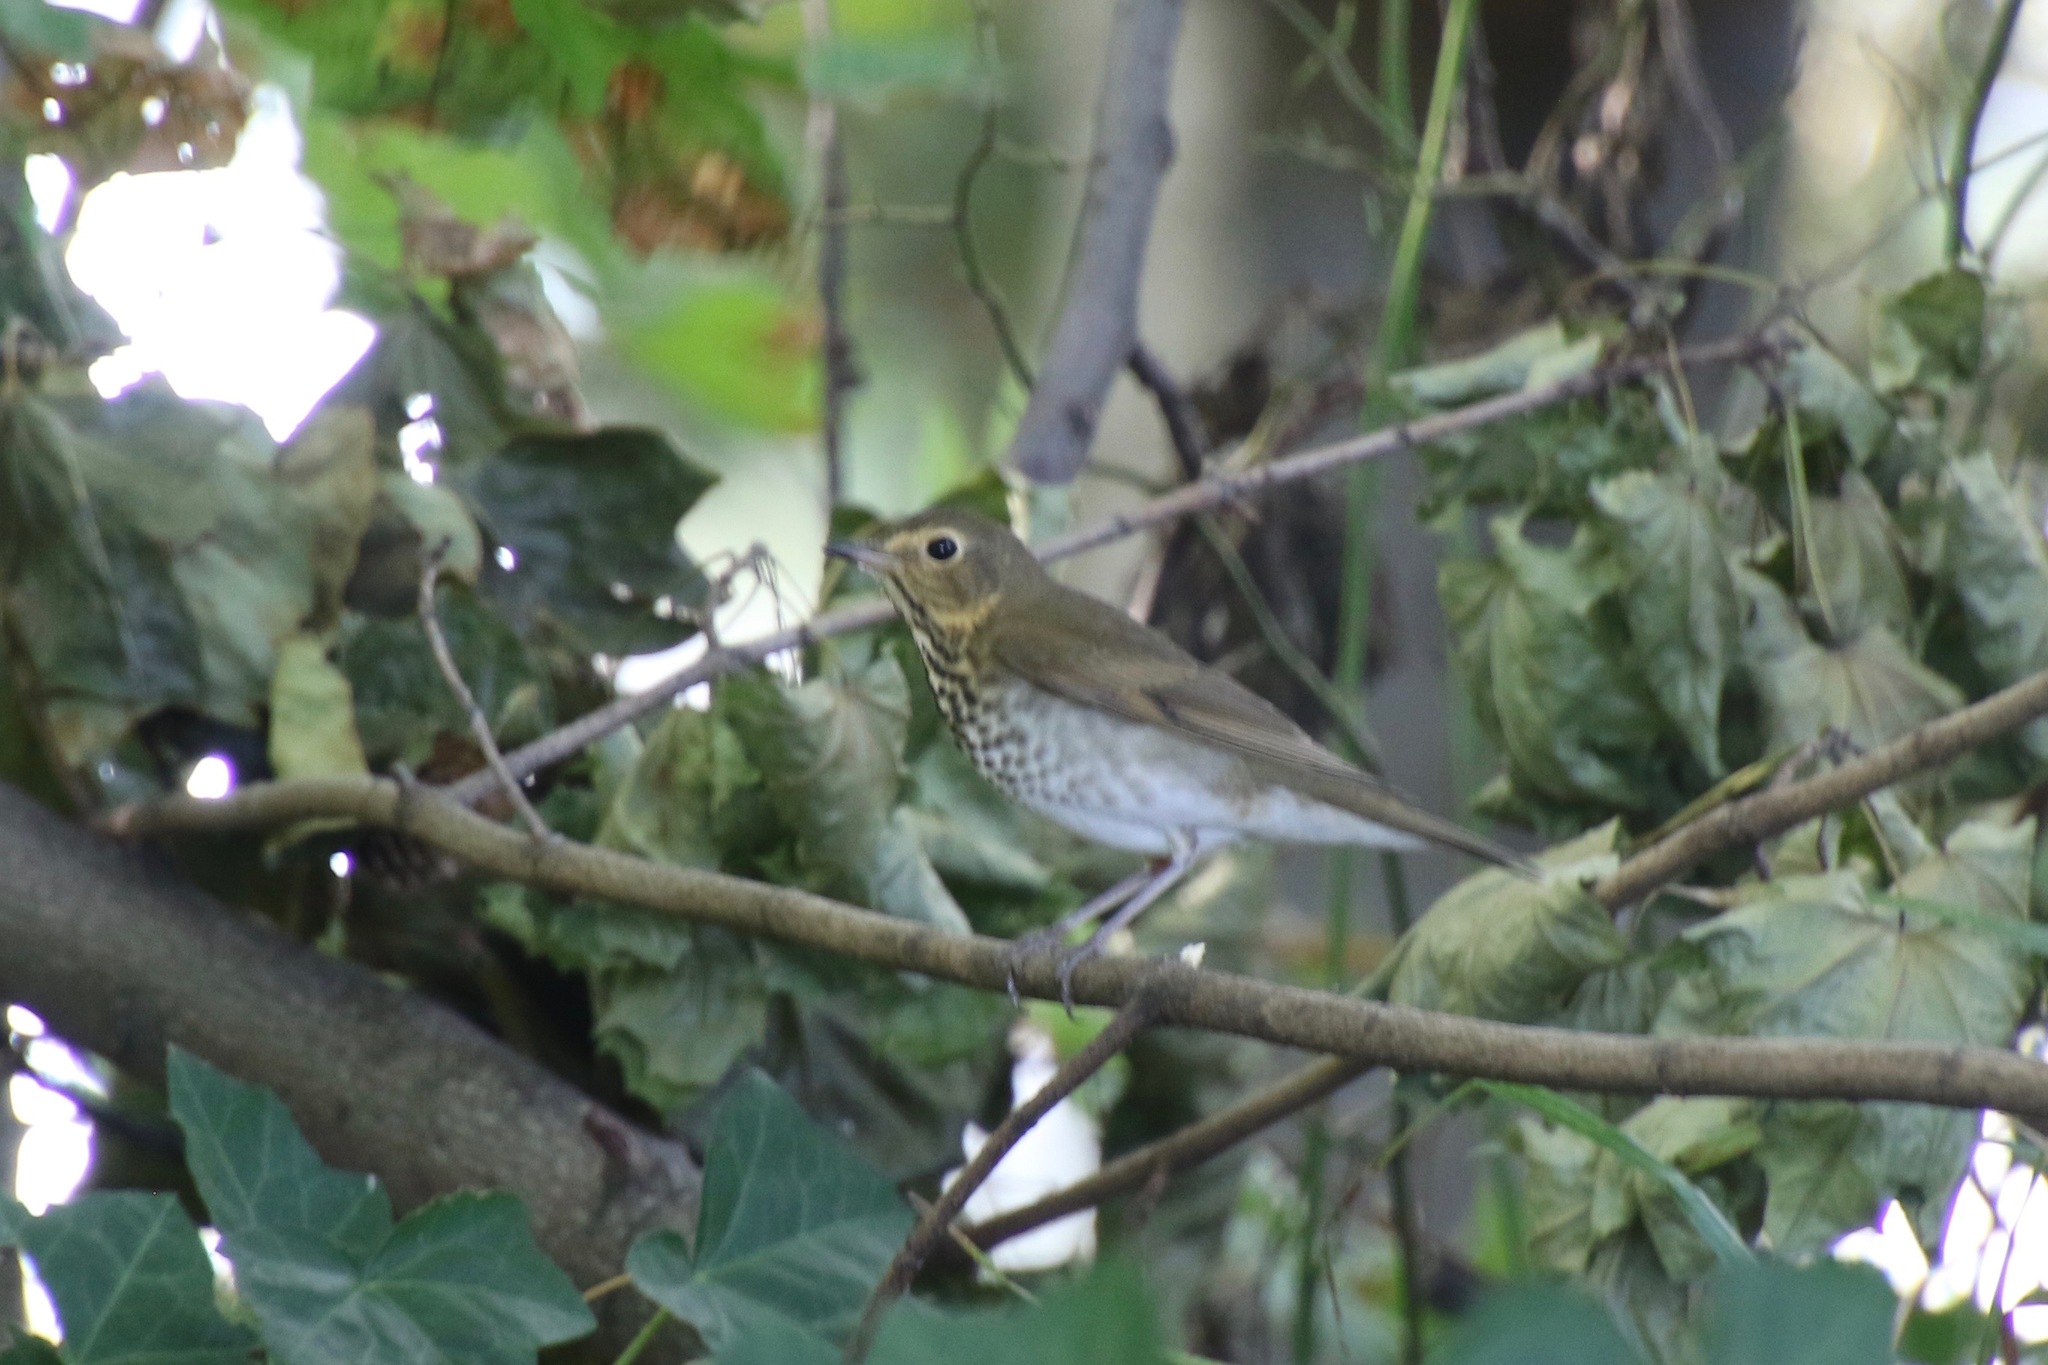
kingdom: Animalia
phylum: Chordata
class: Aves
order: Passeriformes
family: Turdidae
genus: Catharus
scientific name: Catharus ustulatus
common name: Swainson's thrush
